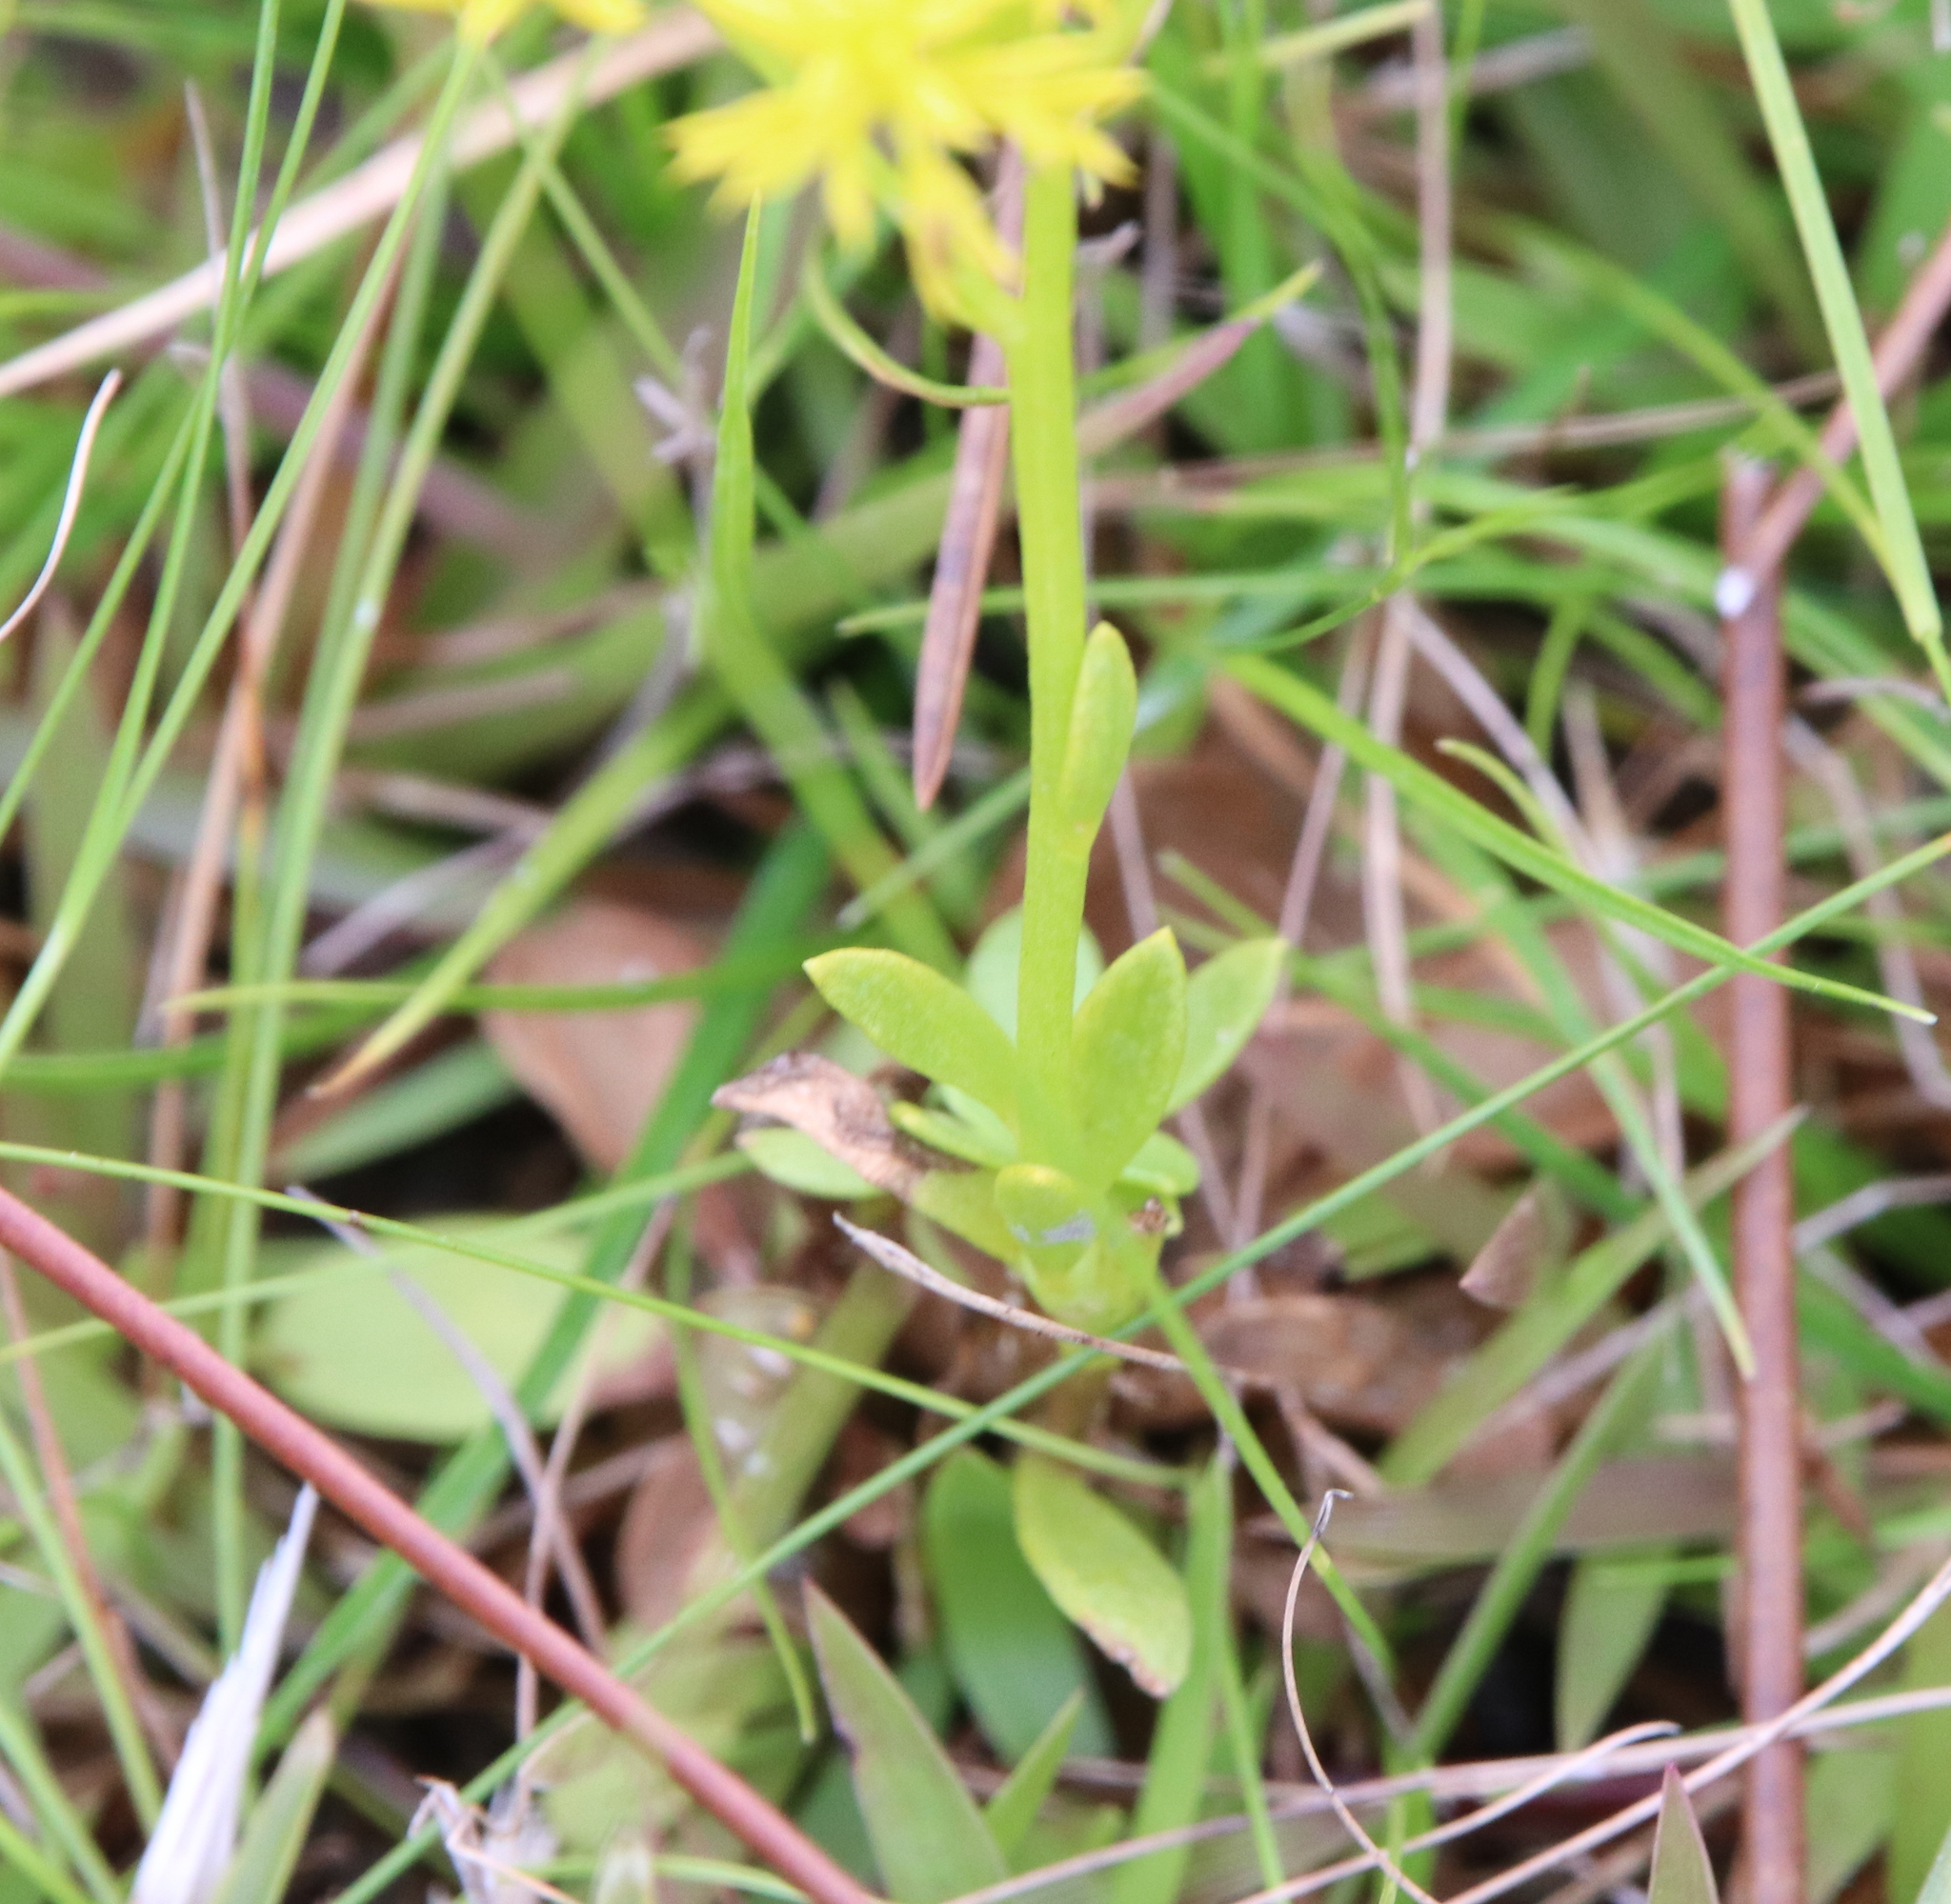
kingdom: Plantae
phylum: Tracheophyta
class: Magnoliopsida
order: Fabales
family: Polygalaceae
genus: Polygala
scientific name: Polygala ramosa
